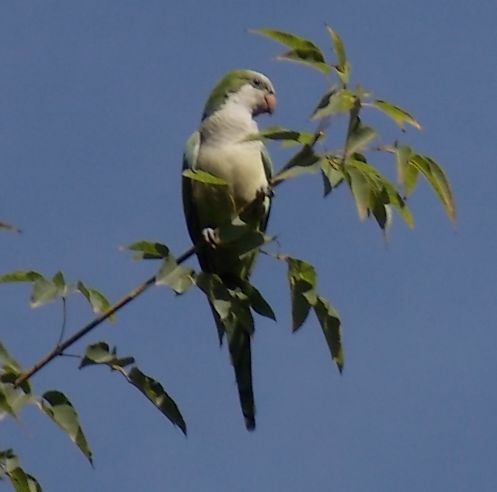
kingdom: Animalia
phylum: Chordata
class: Aves
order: Psittaciformes
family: Psittacidae
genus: Myiopsitta
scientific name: Myiopsitta monachus
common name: Monk parakeet
